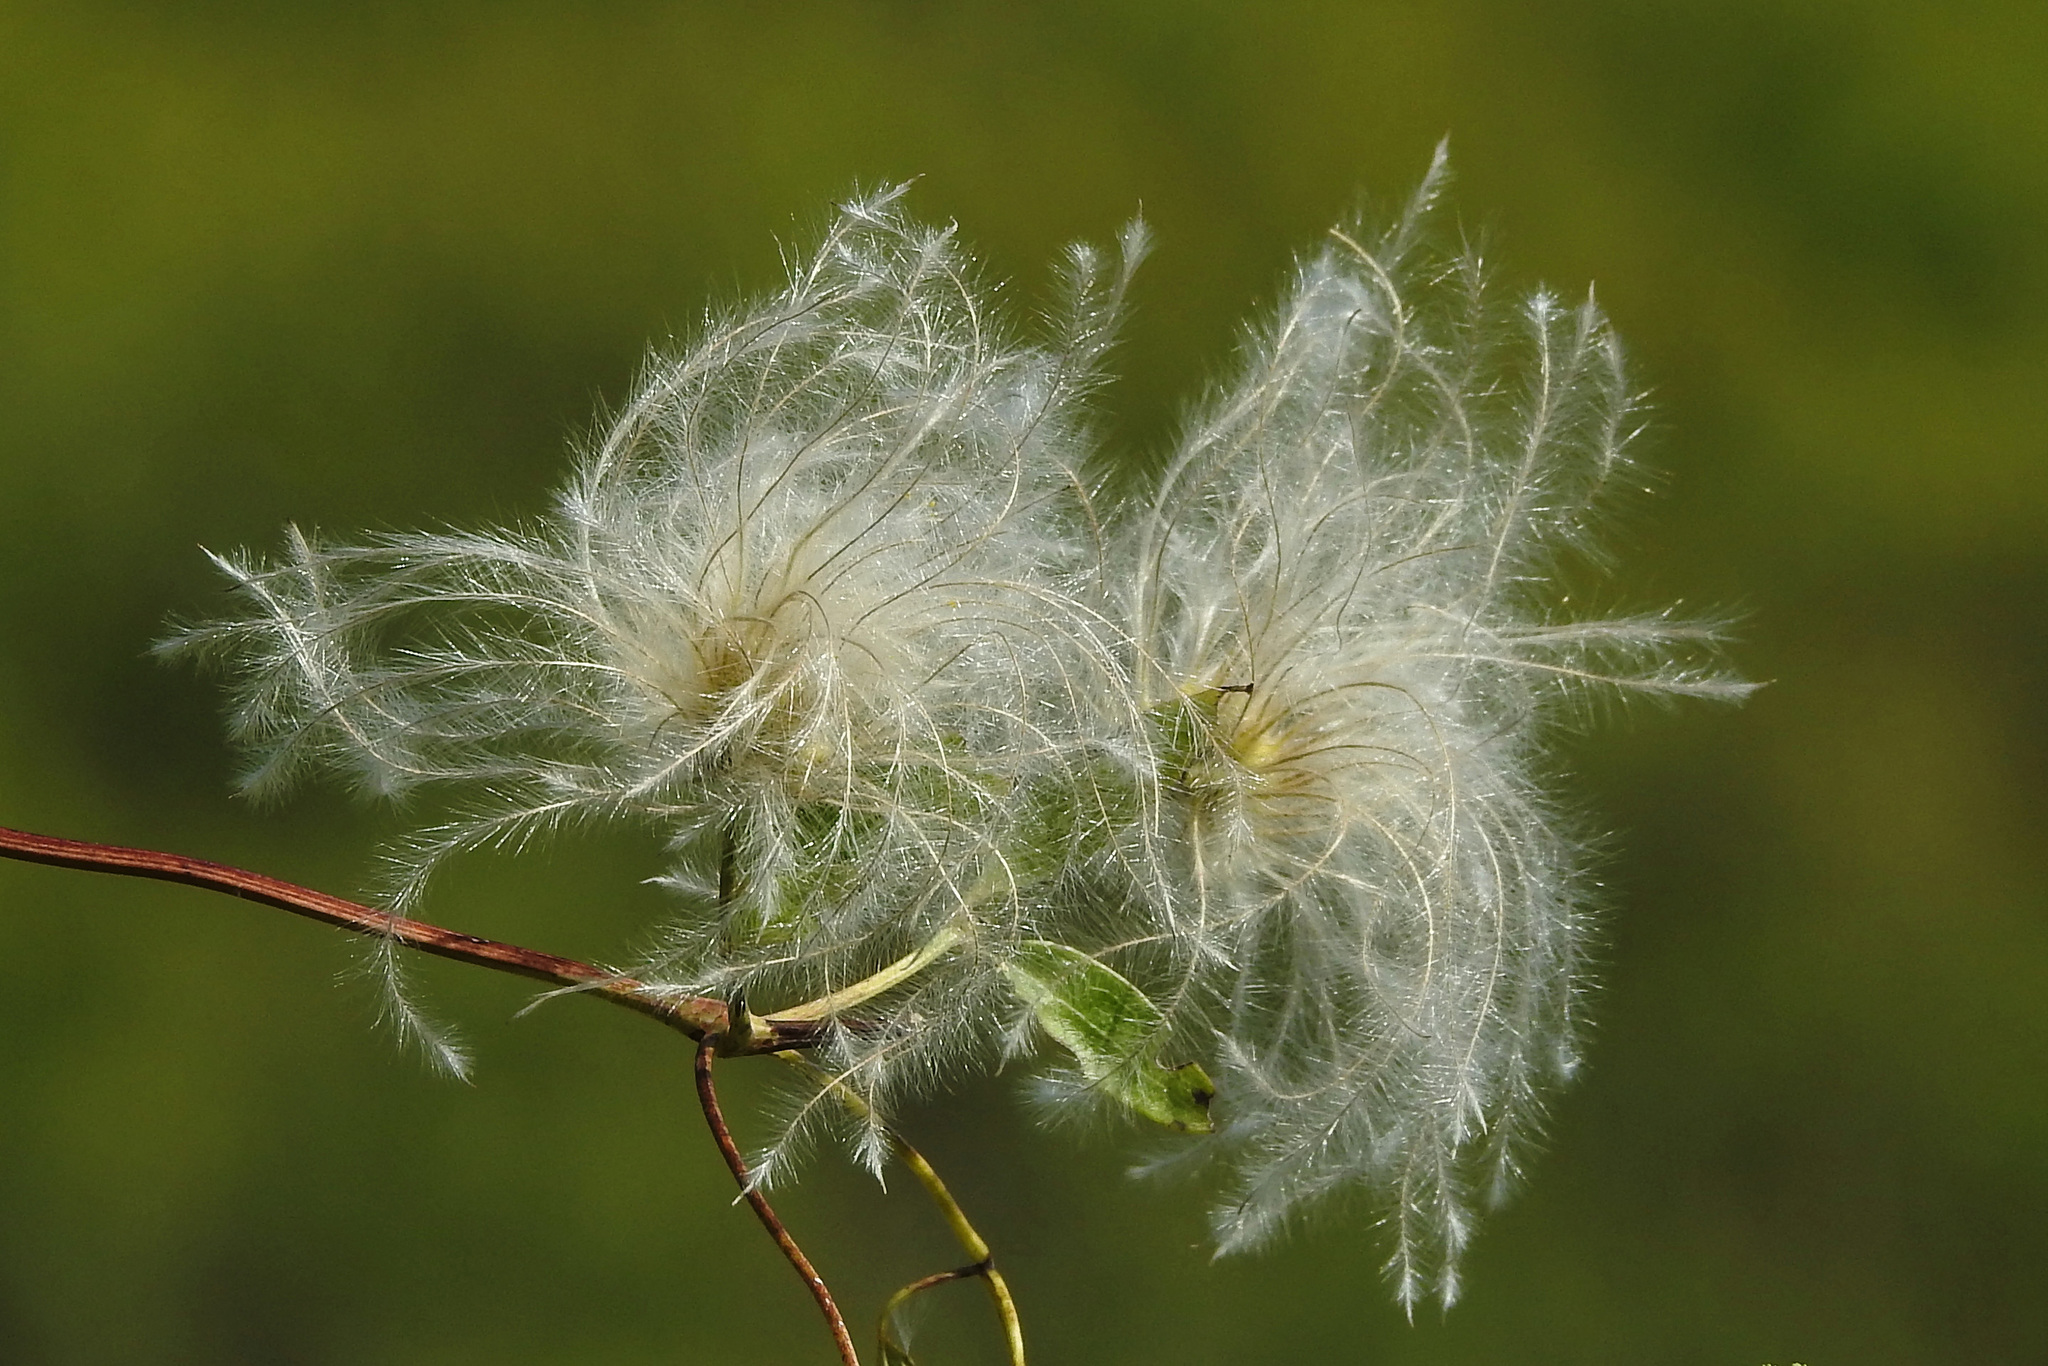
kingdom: Plantae
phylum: Tracheophyta
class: Magnoliopsida
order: Ranunculales
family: Ranunculaceae
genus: Clematis
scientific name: Clematis montevidensis
